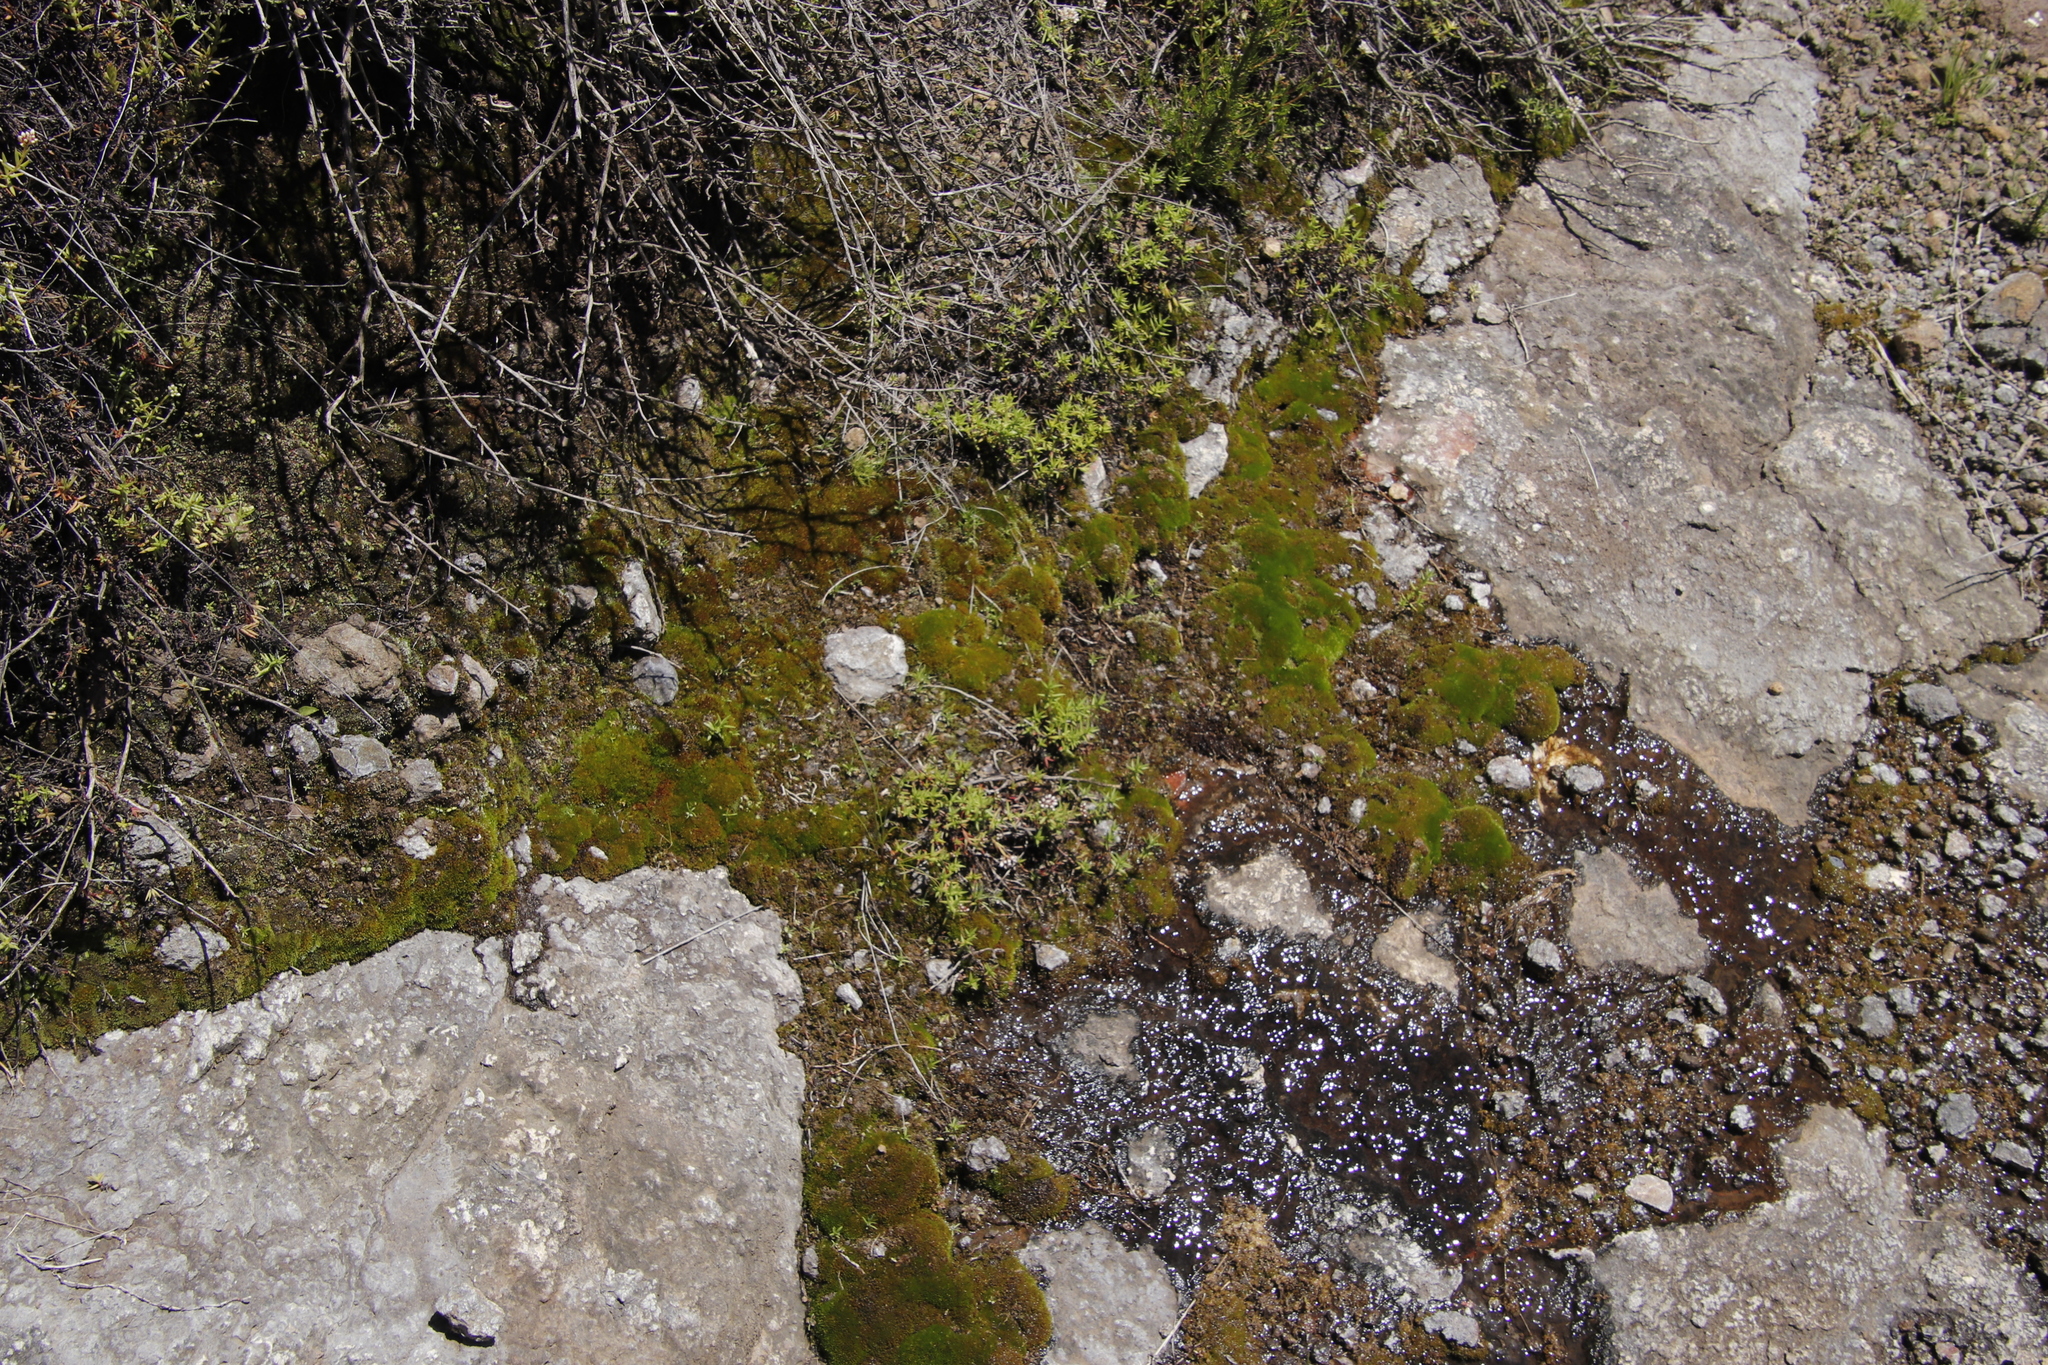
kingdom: Plantae
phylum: Tracheophyta
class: Liliopsida
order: Poales
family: Cyperaceae
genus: Bulbostylis
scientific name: Bulbostylis humilis
